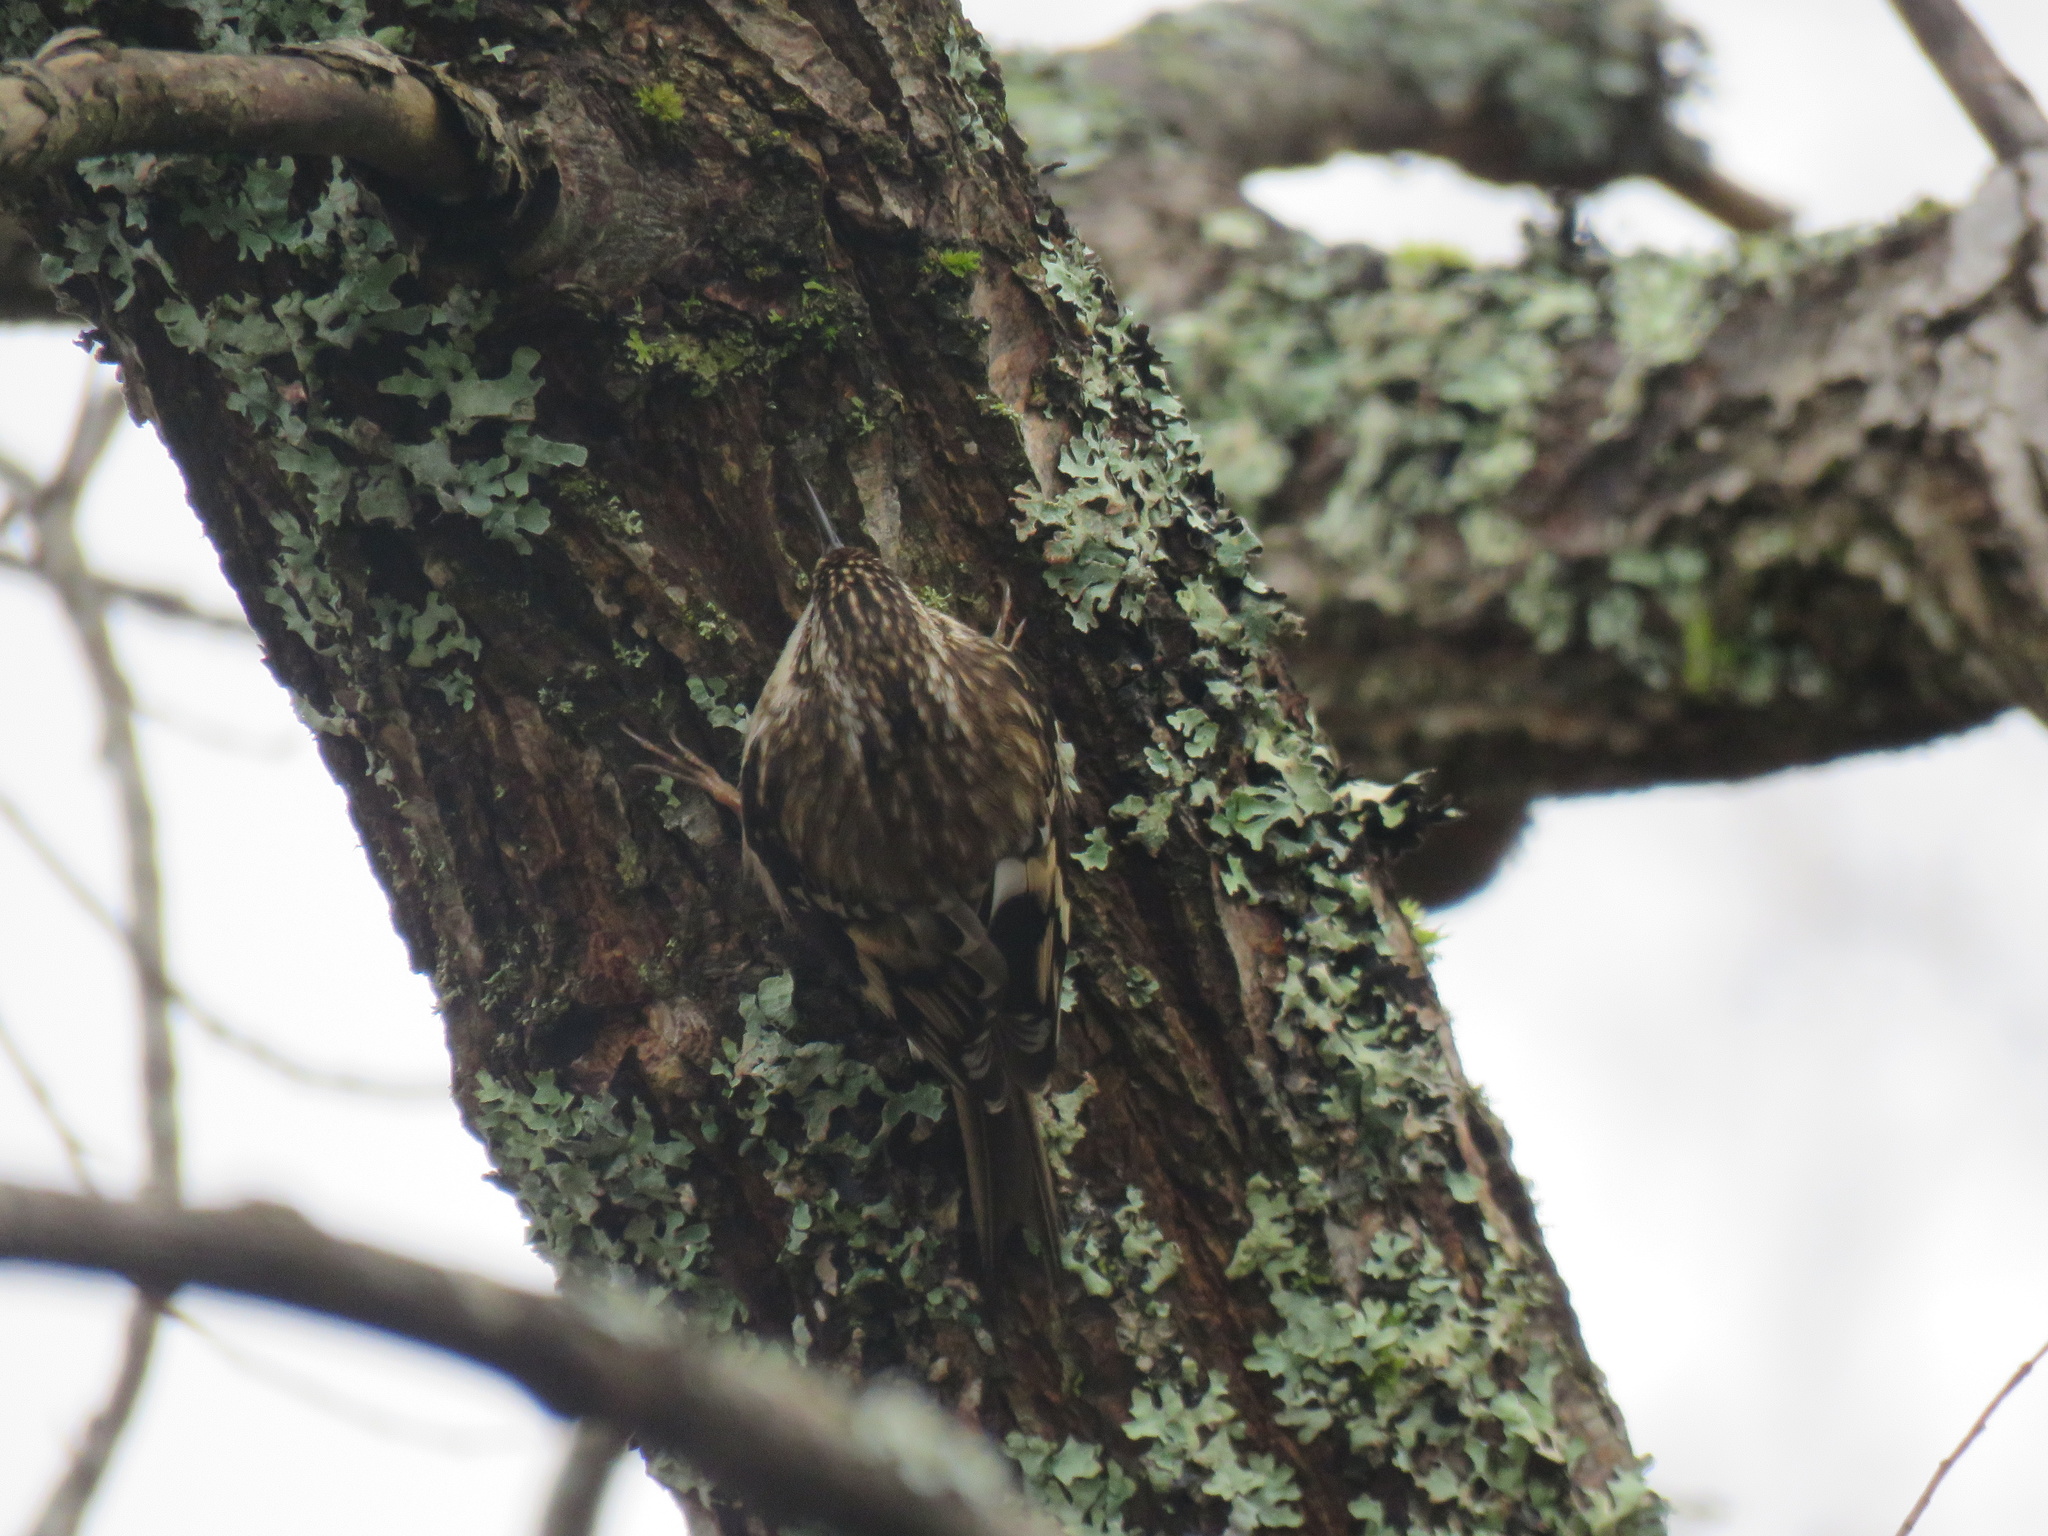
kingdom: Animalia
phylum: Chordata
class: Aves
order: Passeriformes
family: Certhiidae
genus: Certhia
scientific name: Certhia americana
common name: Brown creeper
